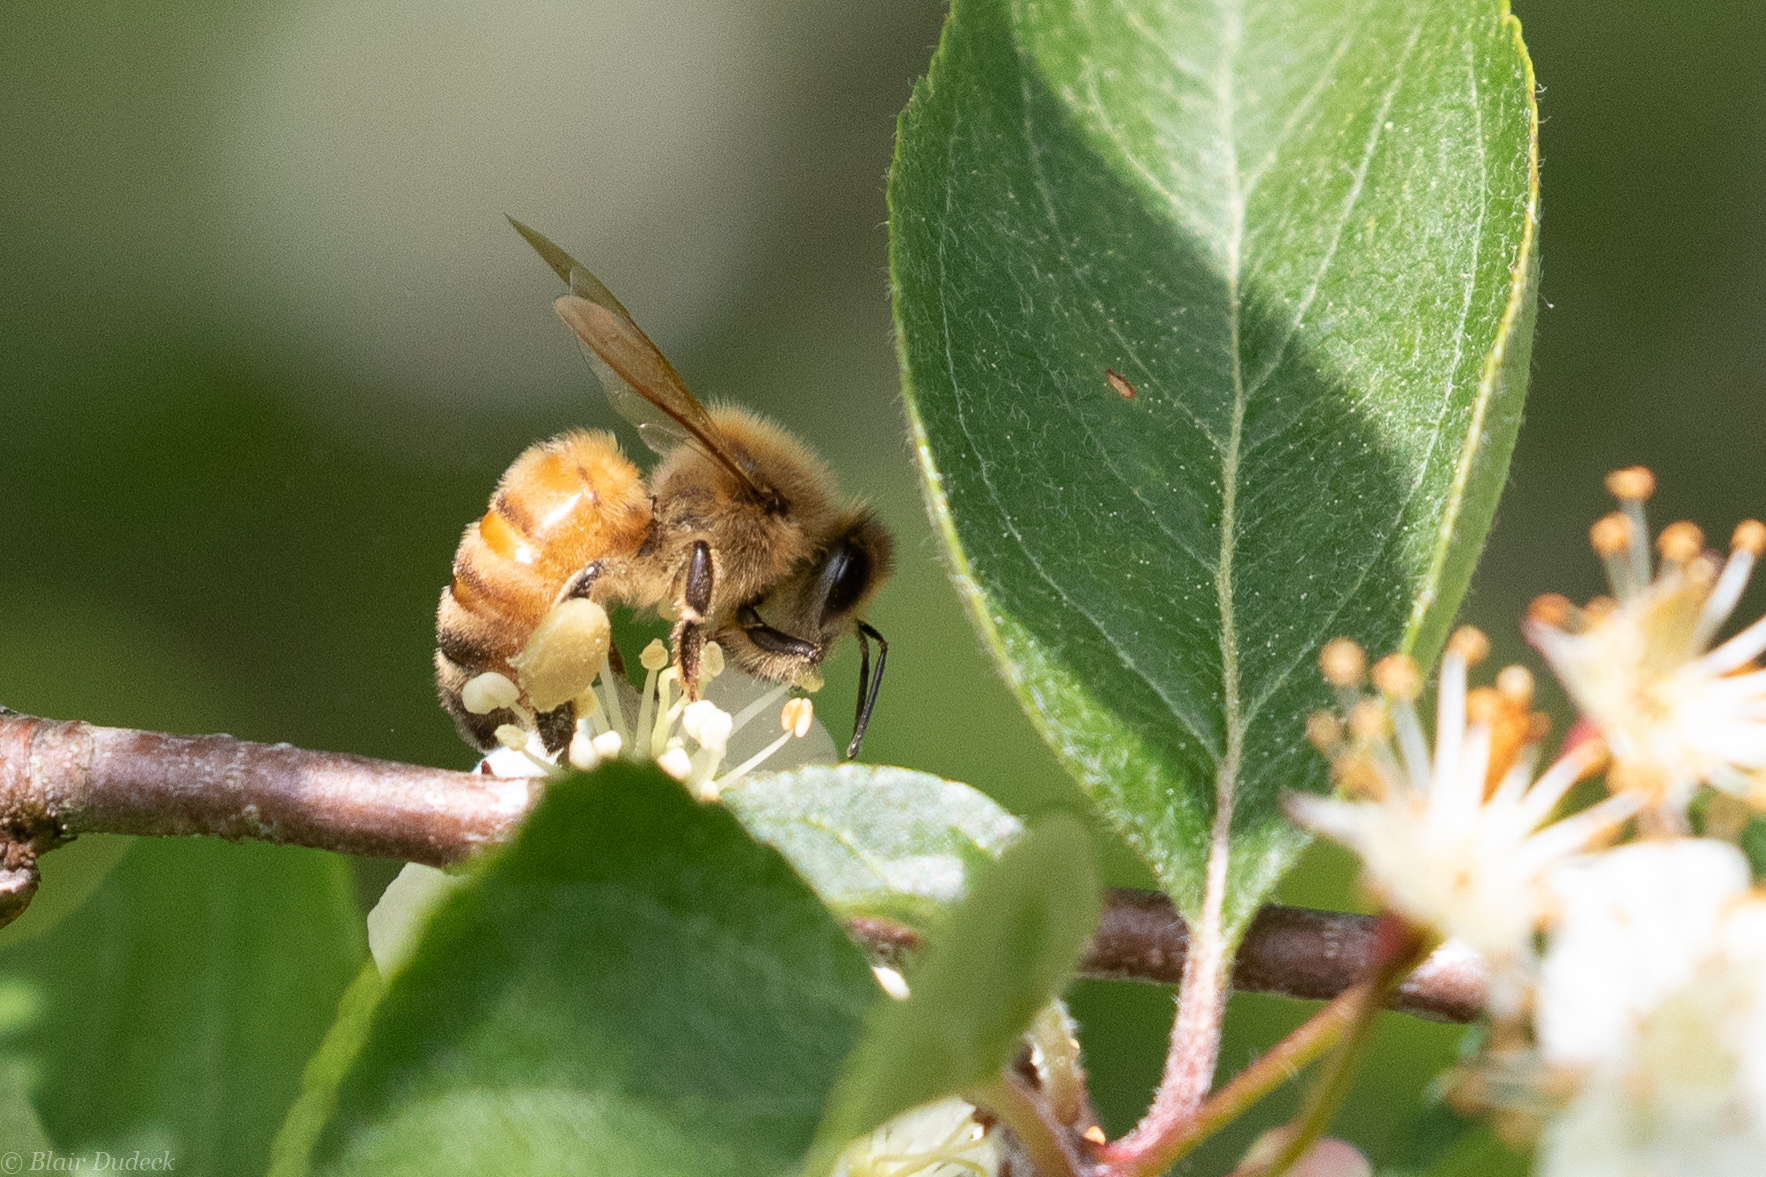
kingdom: Animalia
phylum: Arthropoda
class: Insecta
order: Hymenoptera
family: Apidae
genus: Apis
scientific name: Apis mellifera
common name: Honey bee
